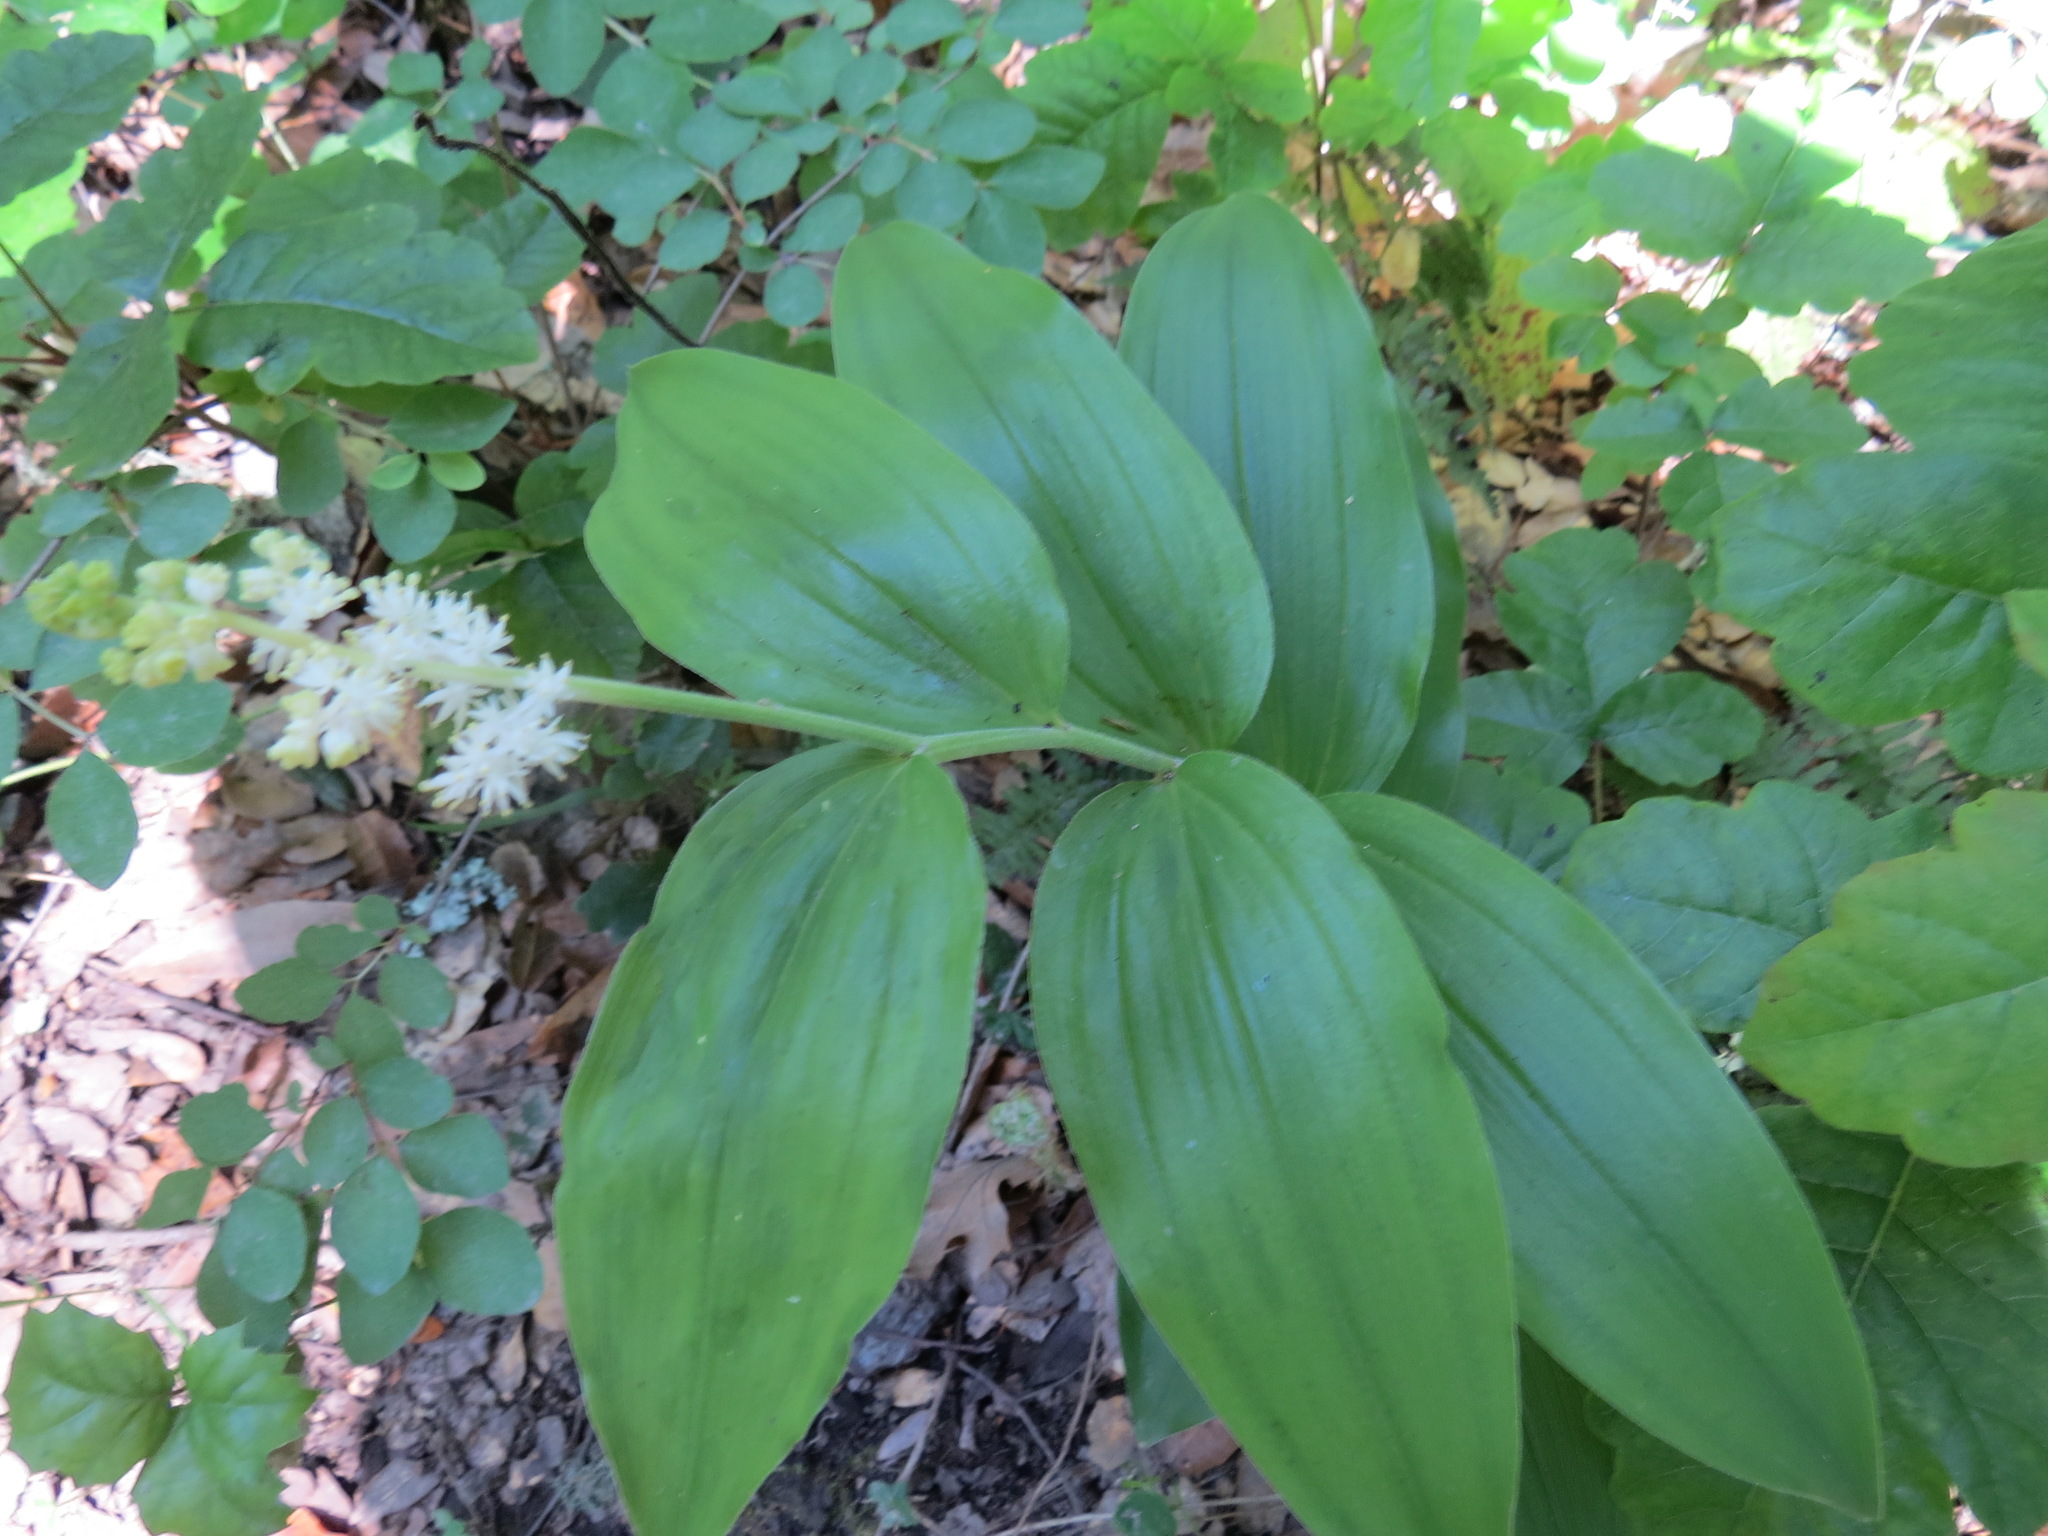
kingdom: Plantae
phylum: Tracheophyta
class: Liliopsida
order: Asparagales
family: Asparagaceae
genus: Maianthemum
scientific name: Maianthemum racemosum
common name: False spikenard
